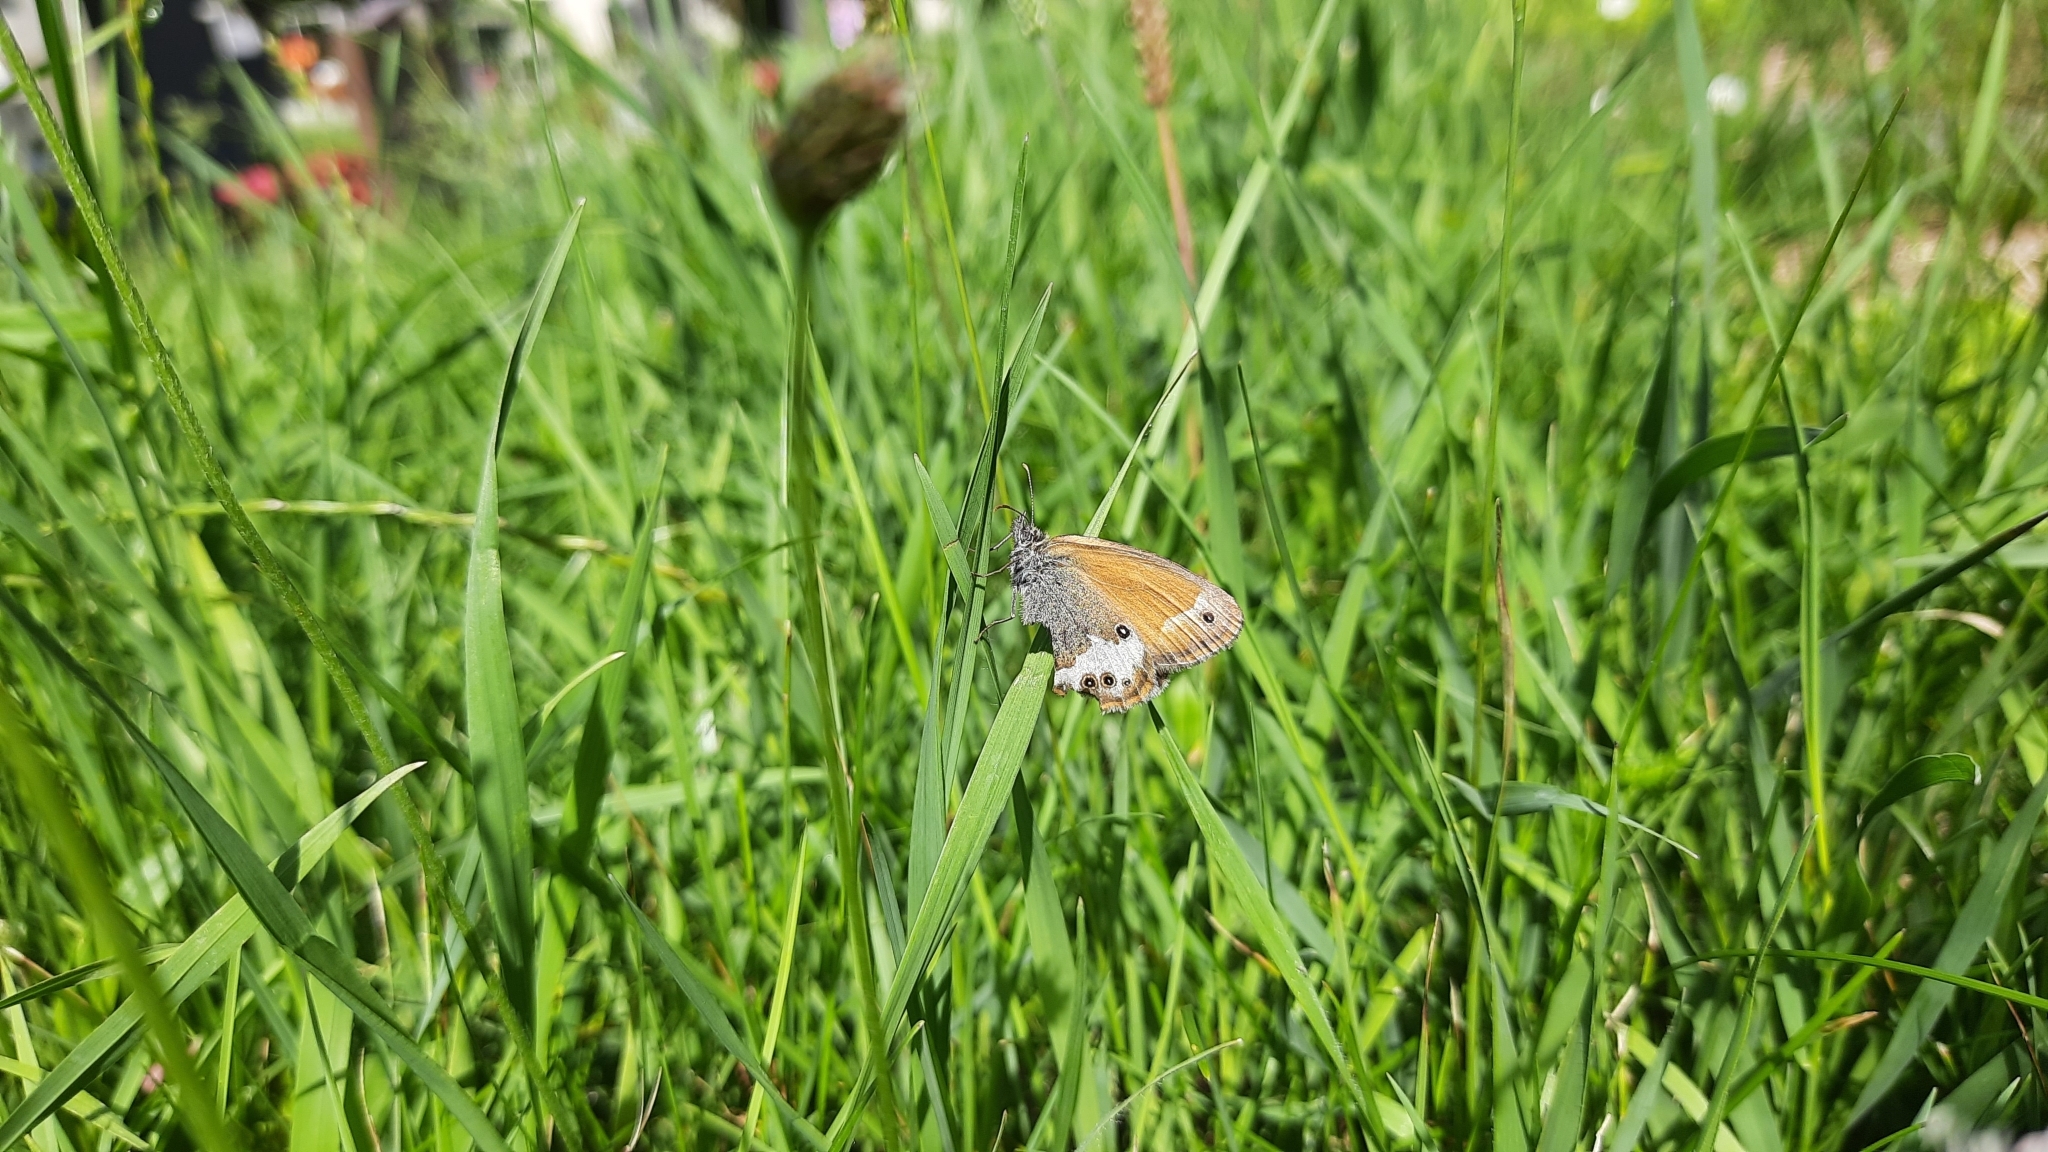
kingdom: Animalia
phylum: Arthropoda
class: Insecta
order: Lepidoptera
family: Nymphalidae
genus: Coenonympha
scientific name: Coenonympha arcania
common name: Pearly heath
